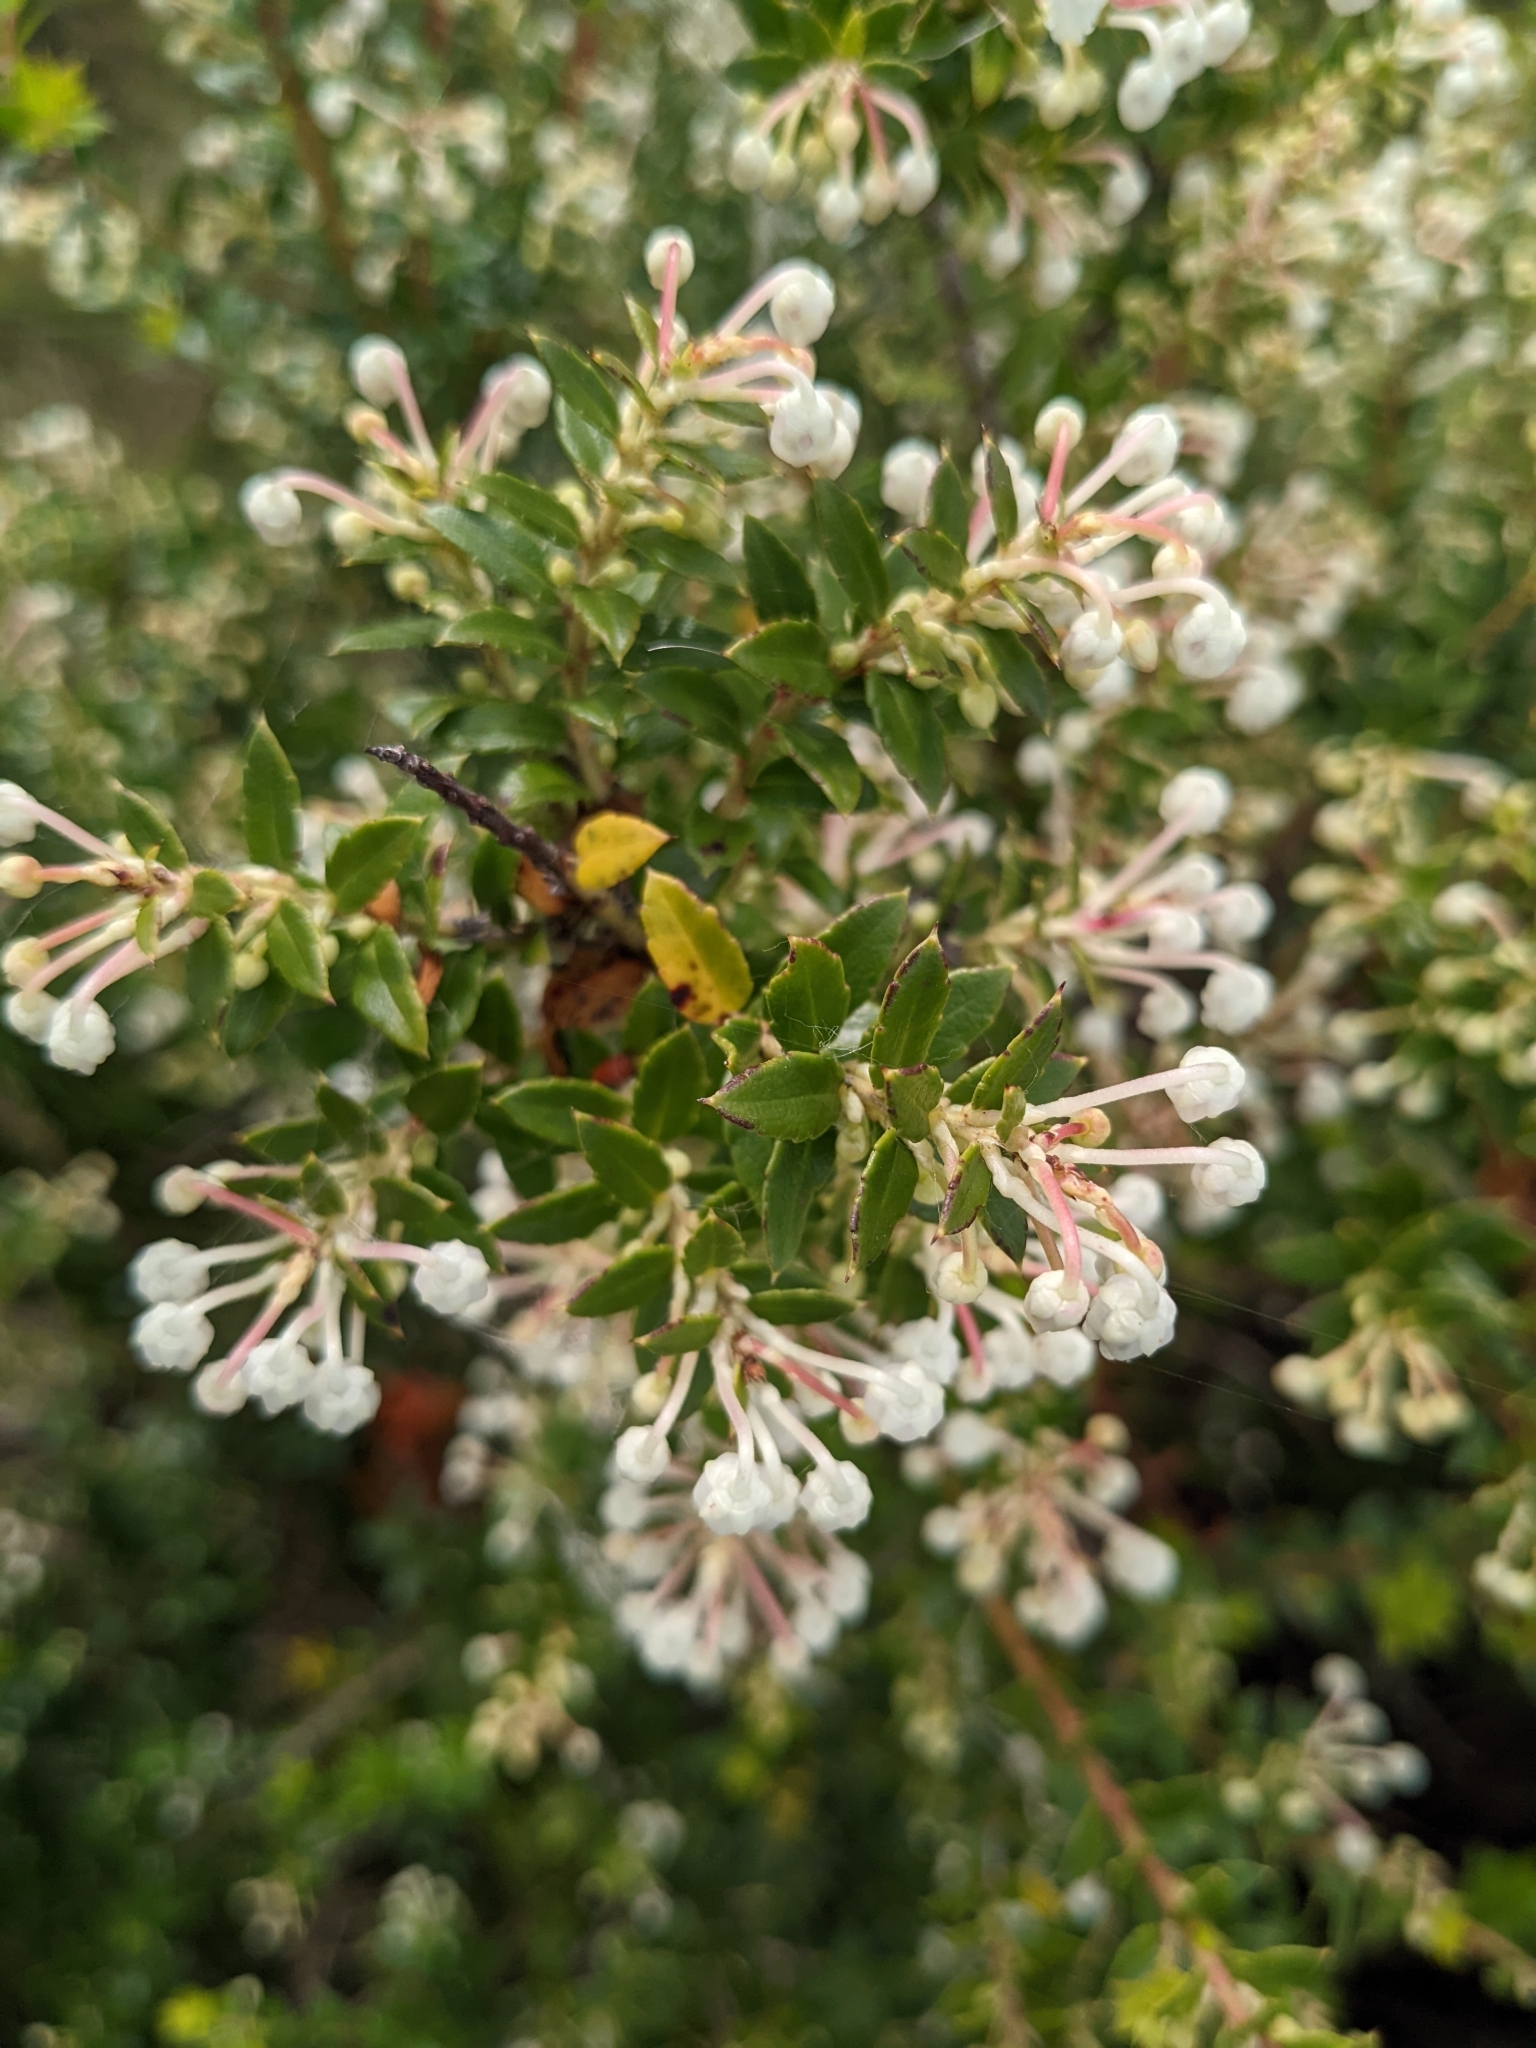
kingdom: Plantae
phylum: Tracheophyta
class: Magnoliopsida
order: Ericales
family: Ericaceae
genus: Gaultheria
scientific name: Gaultheria mucronata
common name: Prickly heath
